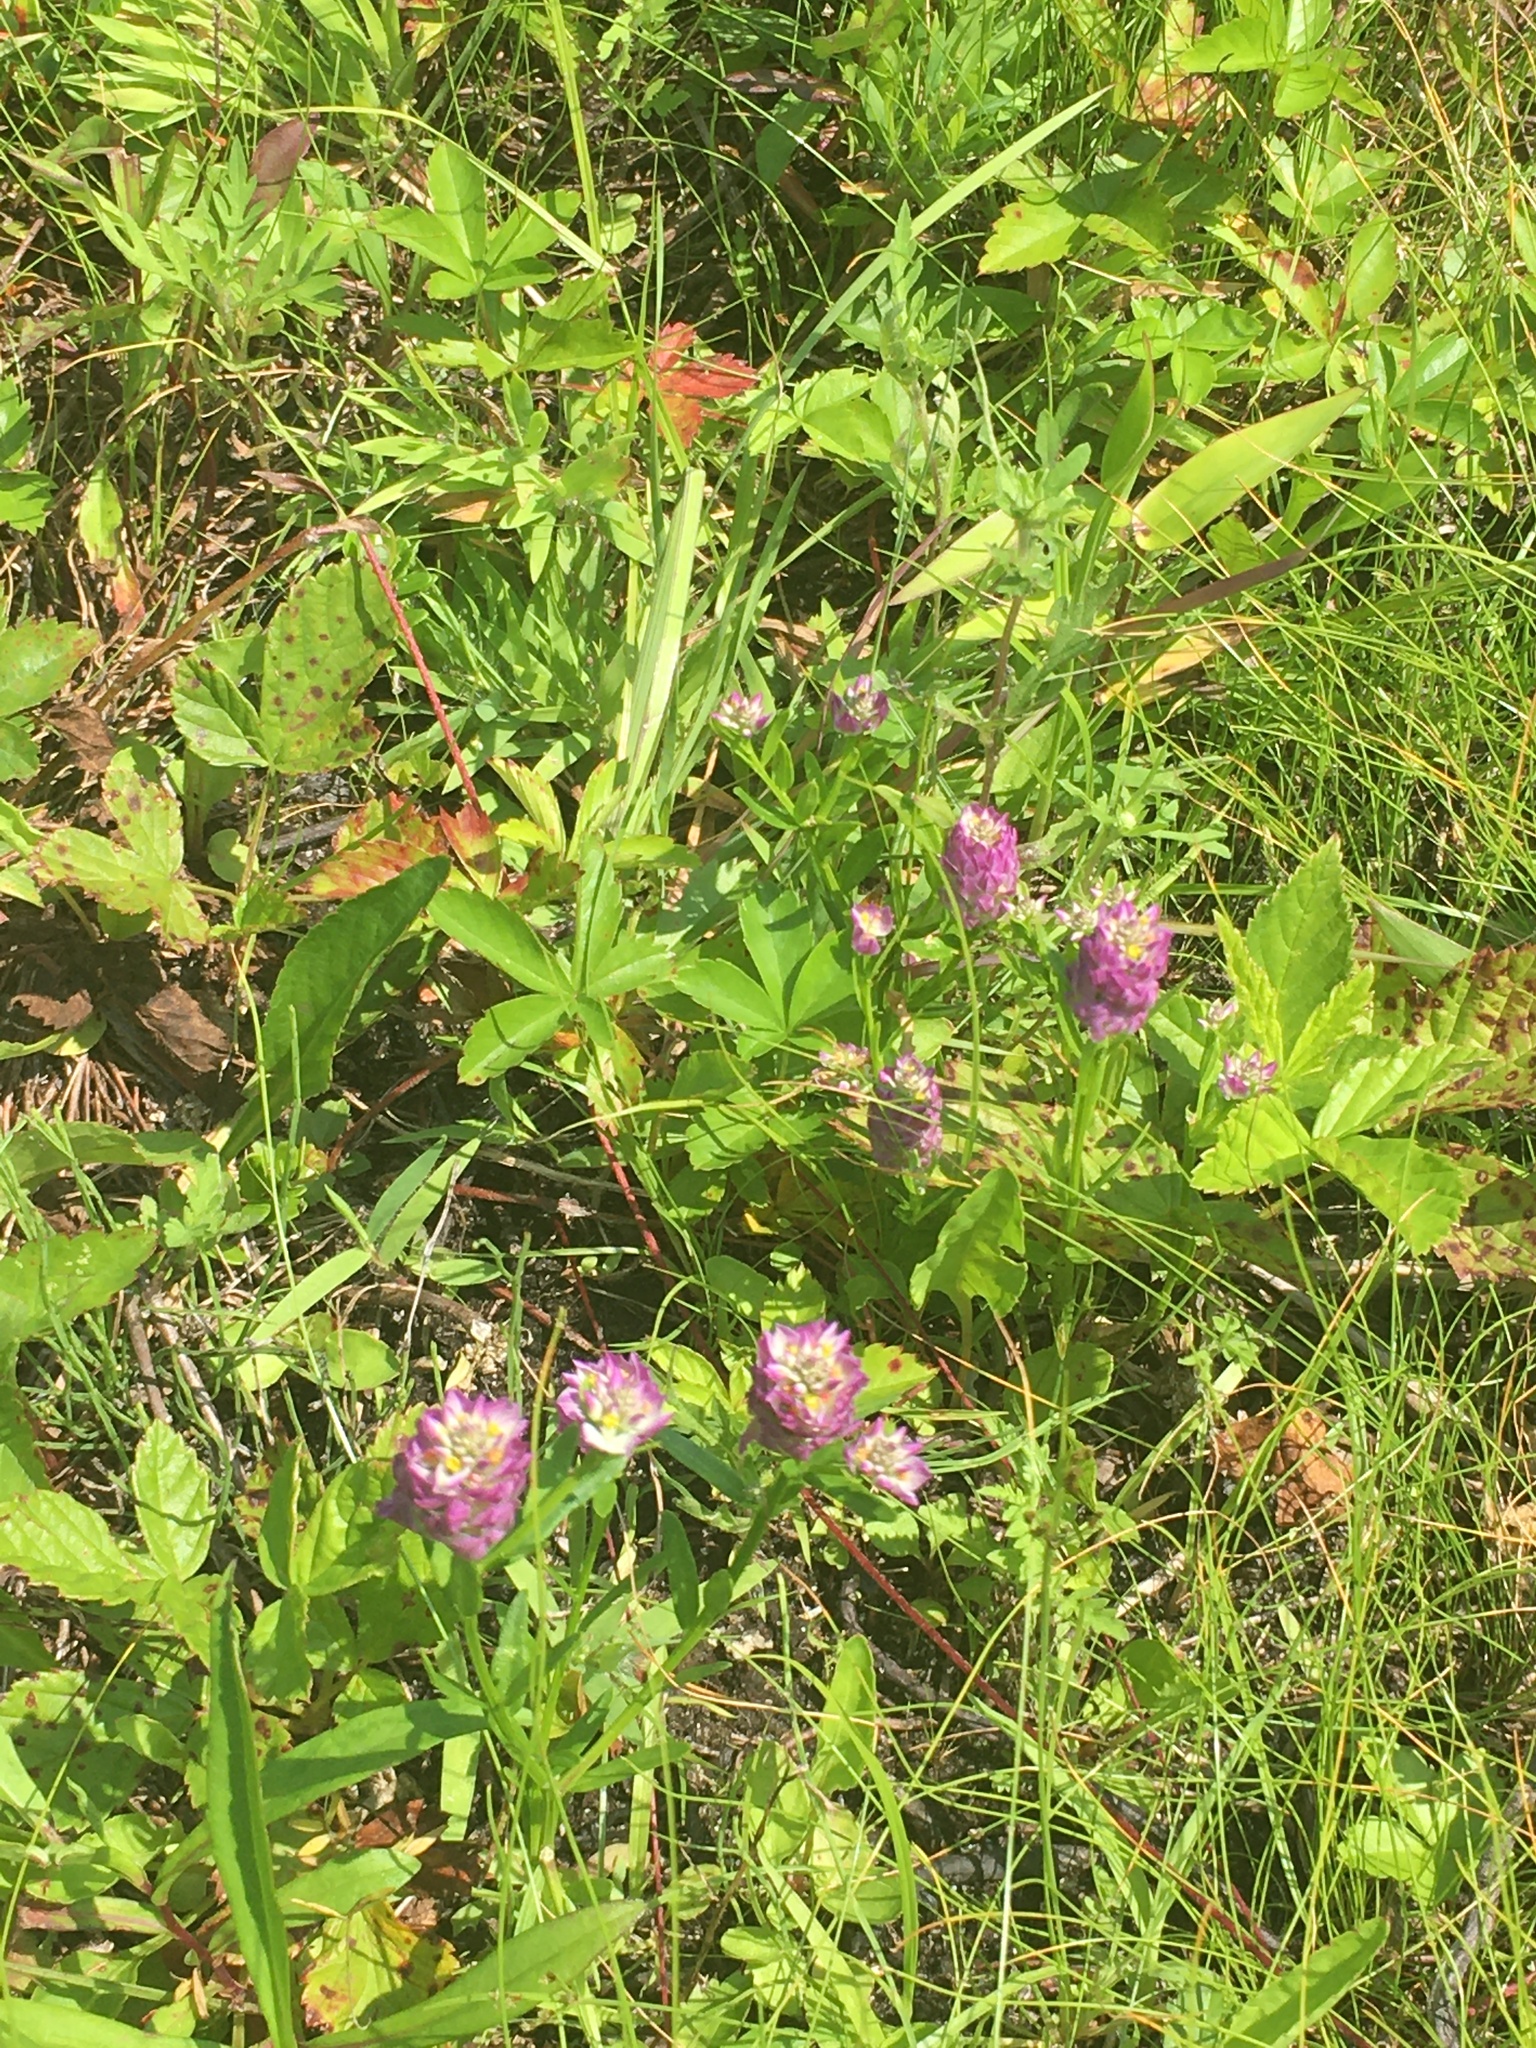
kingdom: Plantae
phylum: Tracheophyta
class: Magnoliopsida
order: Fabales
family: Polygalaceae
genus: Polygala
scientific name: Polygala sanguinea
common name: Blood milkwort
